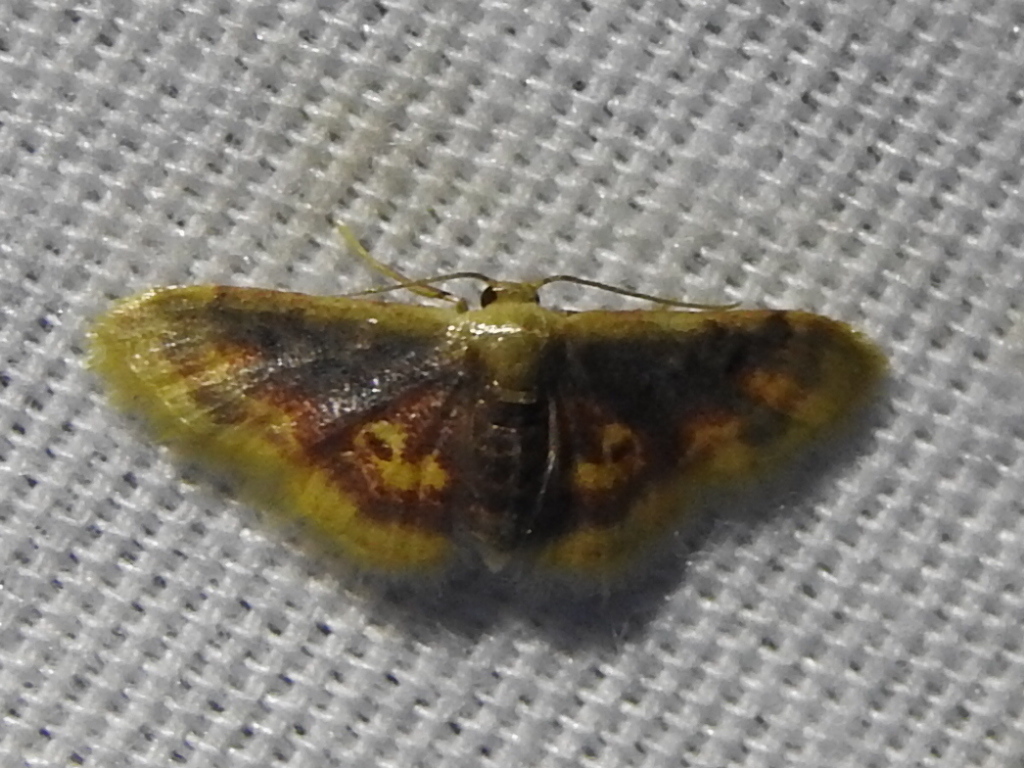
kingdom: Animalia
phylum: Arthropoda
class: Insecta
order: Lepidoptera
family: Geometridae
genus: Idaea
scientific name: Idaea scintillularia
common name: Diminutive wave
